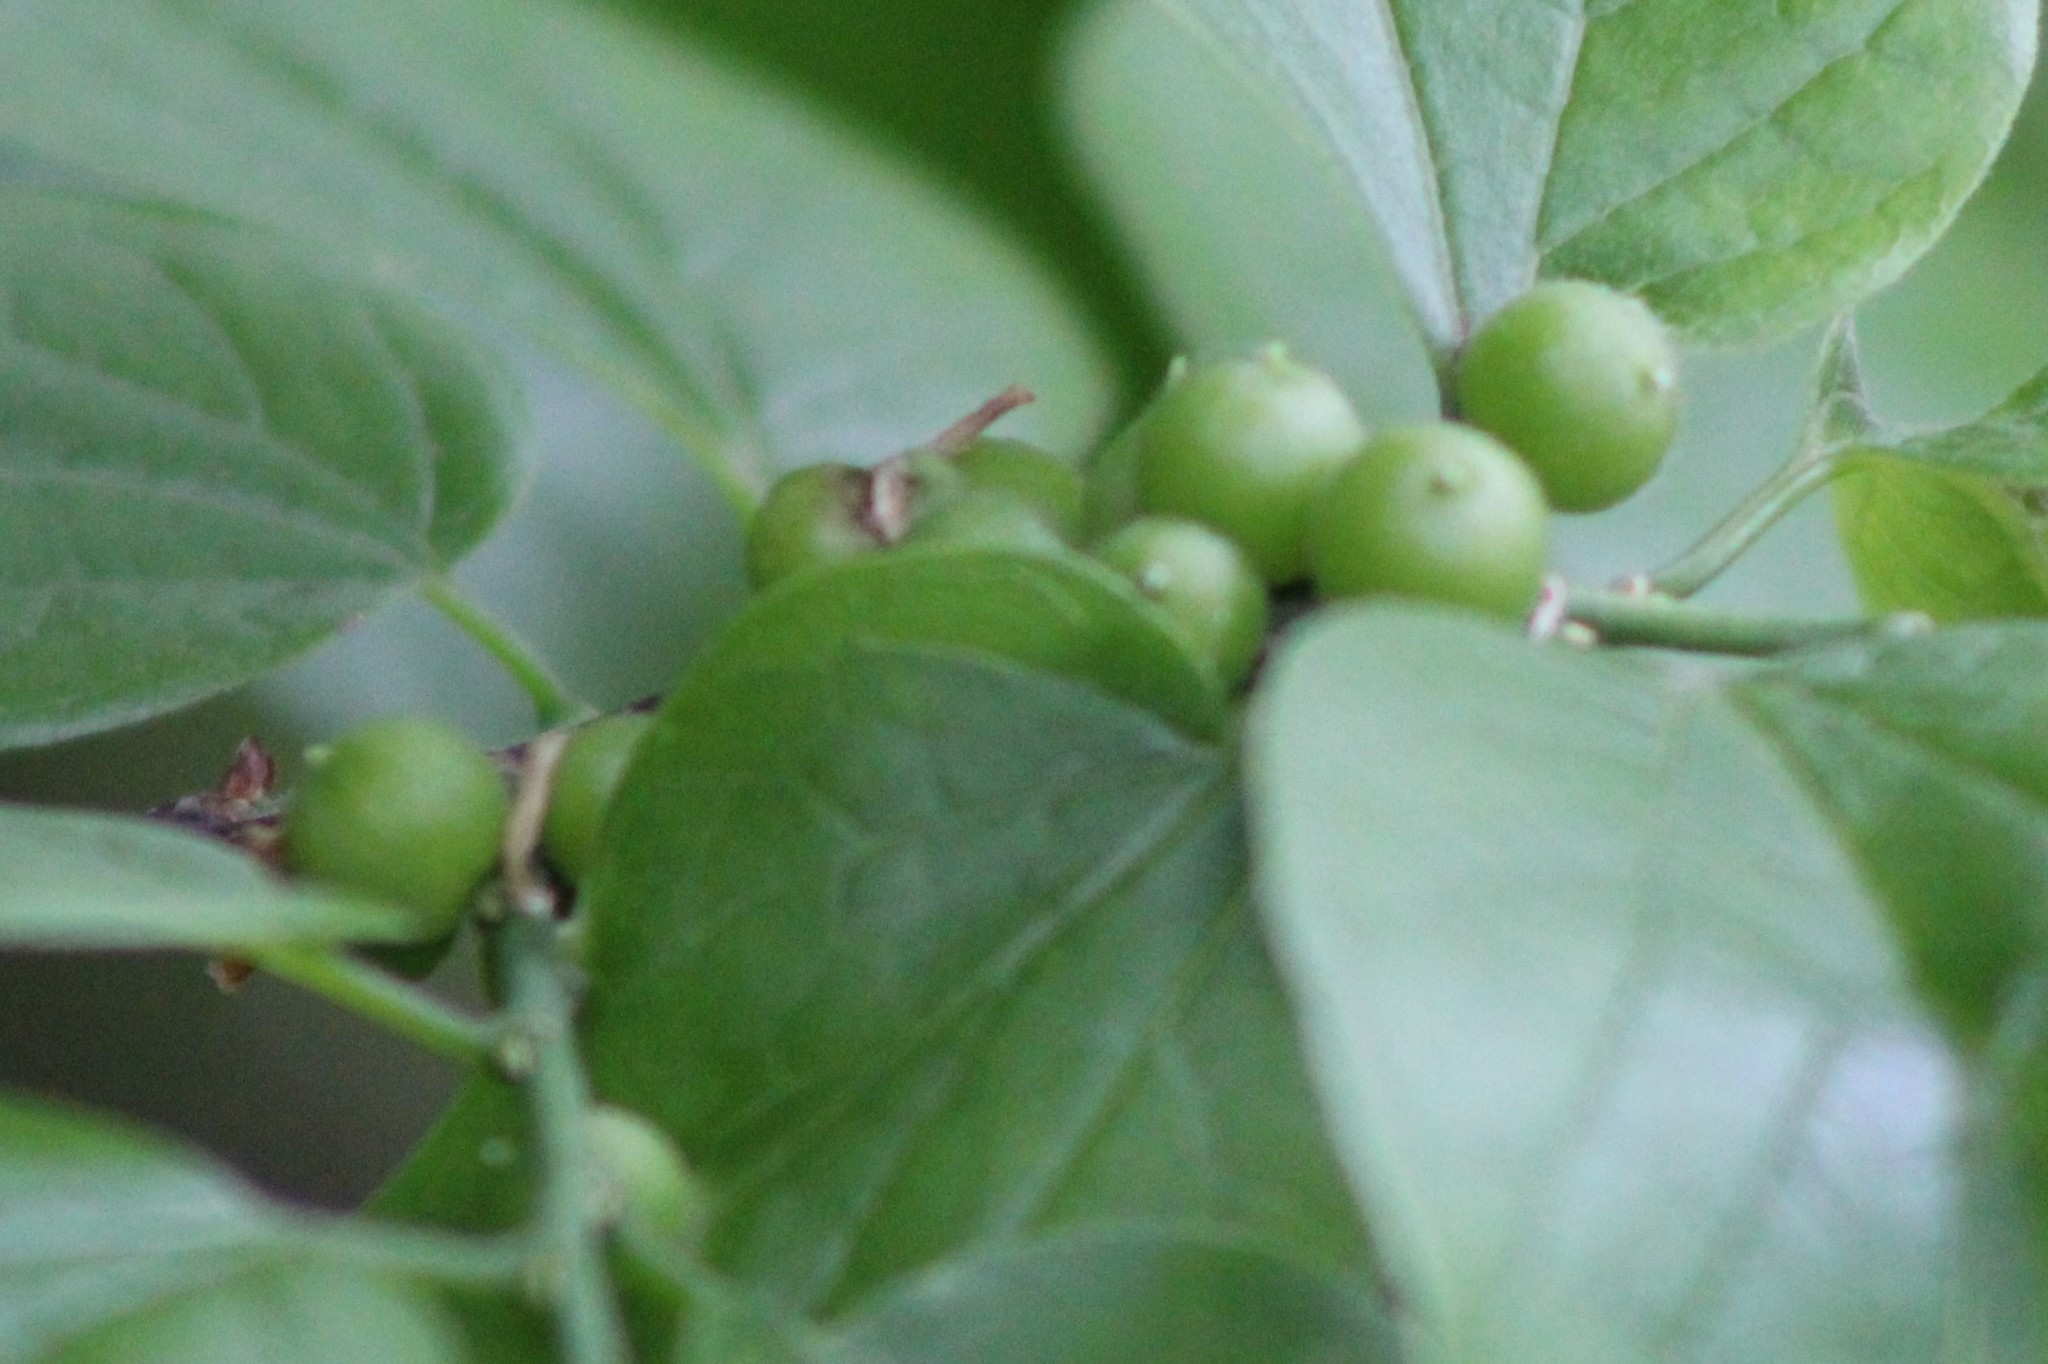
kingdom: Animalia
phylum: Arthropoda
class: Insecta
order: Diptera
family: Cecidomyiidae
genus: Celticecis
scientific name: Celticecis connata
